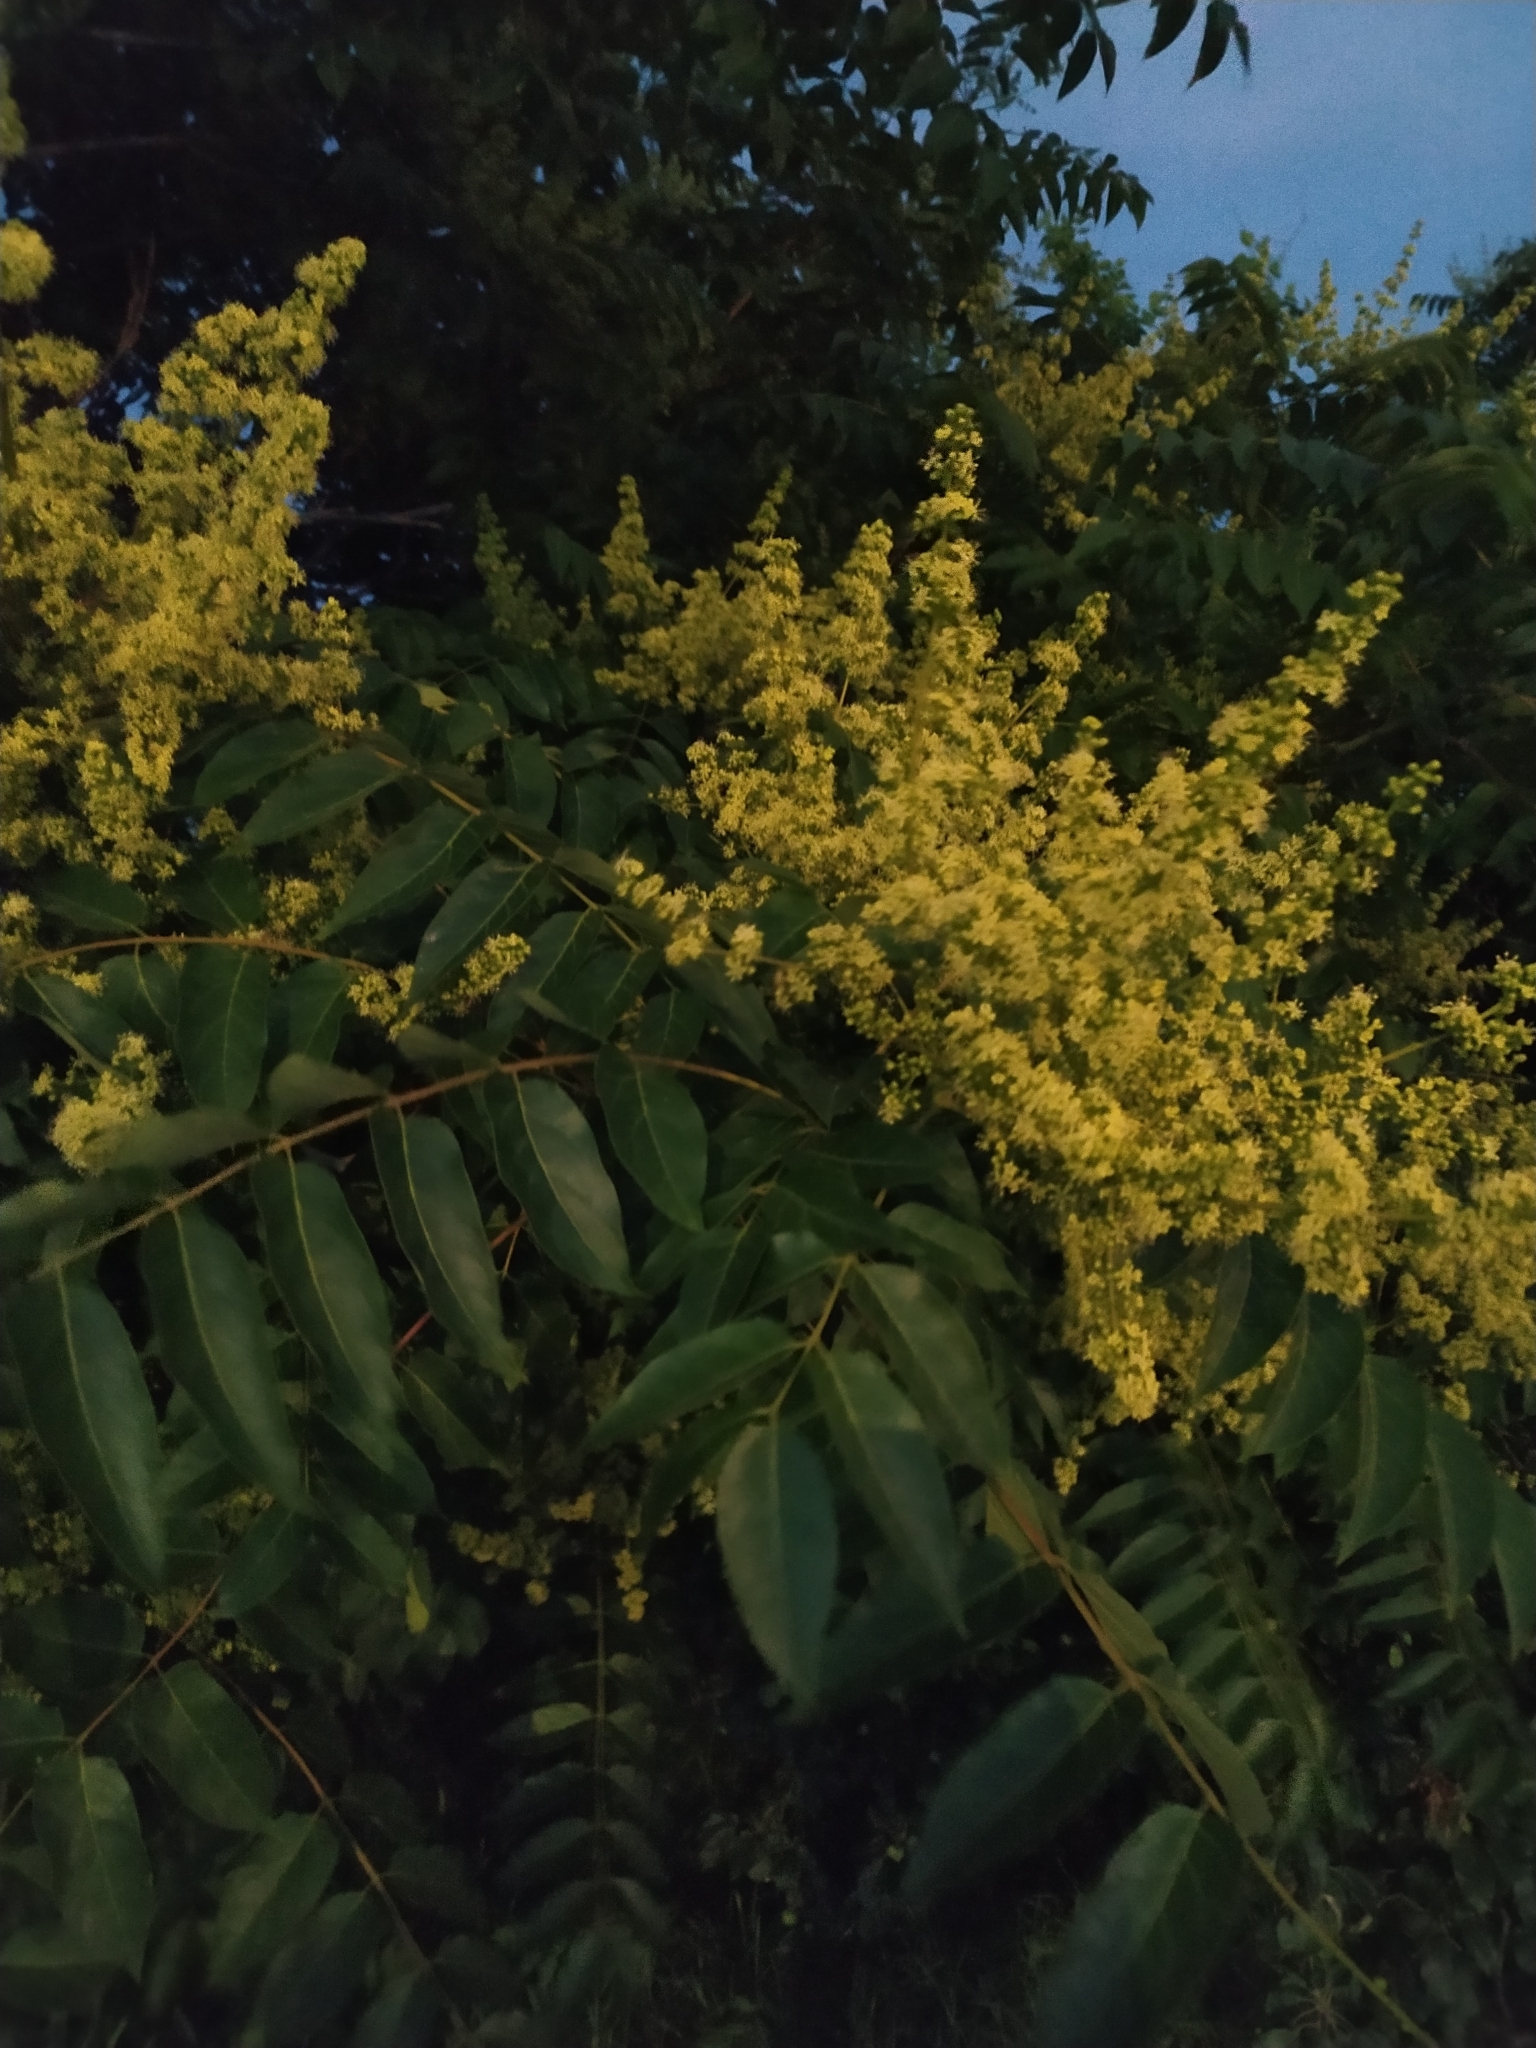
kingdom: Plantae
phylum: Tracheophyta
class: Magnoliopsida
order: Sapindales
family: Simaroubaceae
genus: Ailanthus
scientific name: Ailanthus altissima
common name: Tree-of-heaven
